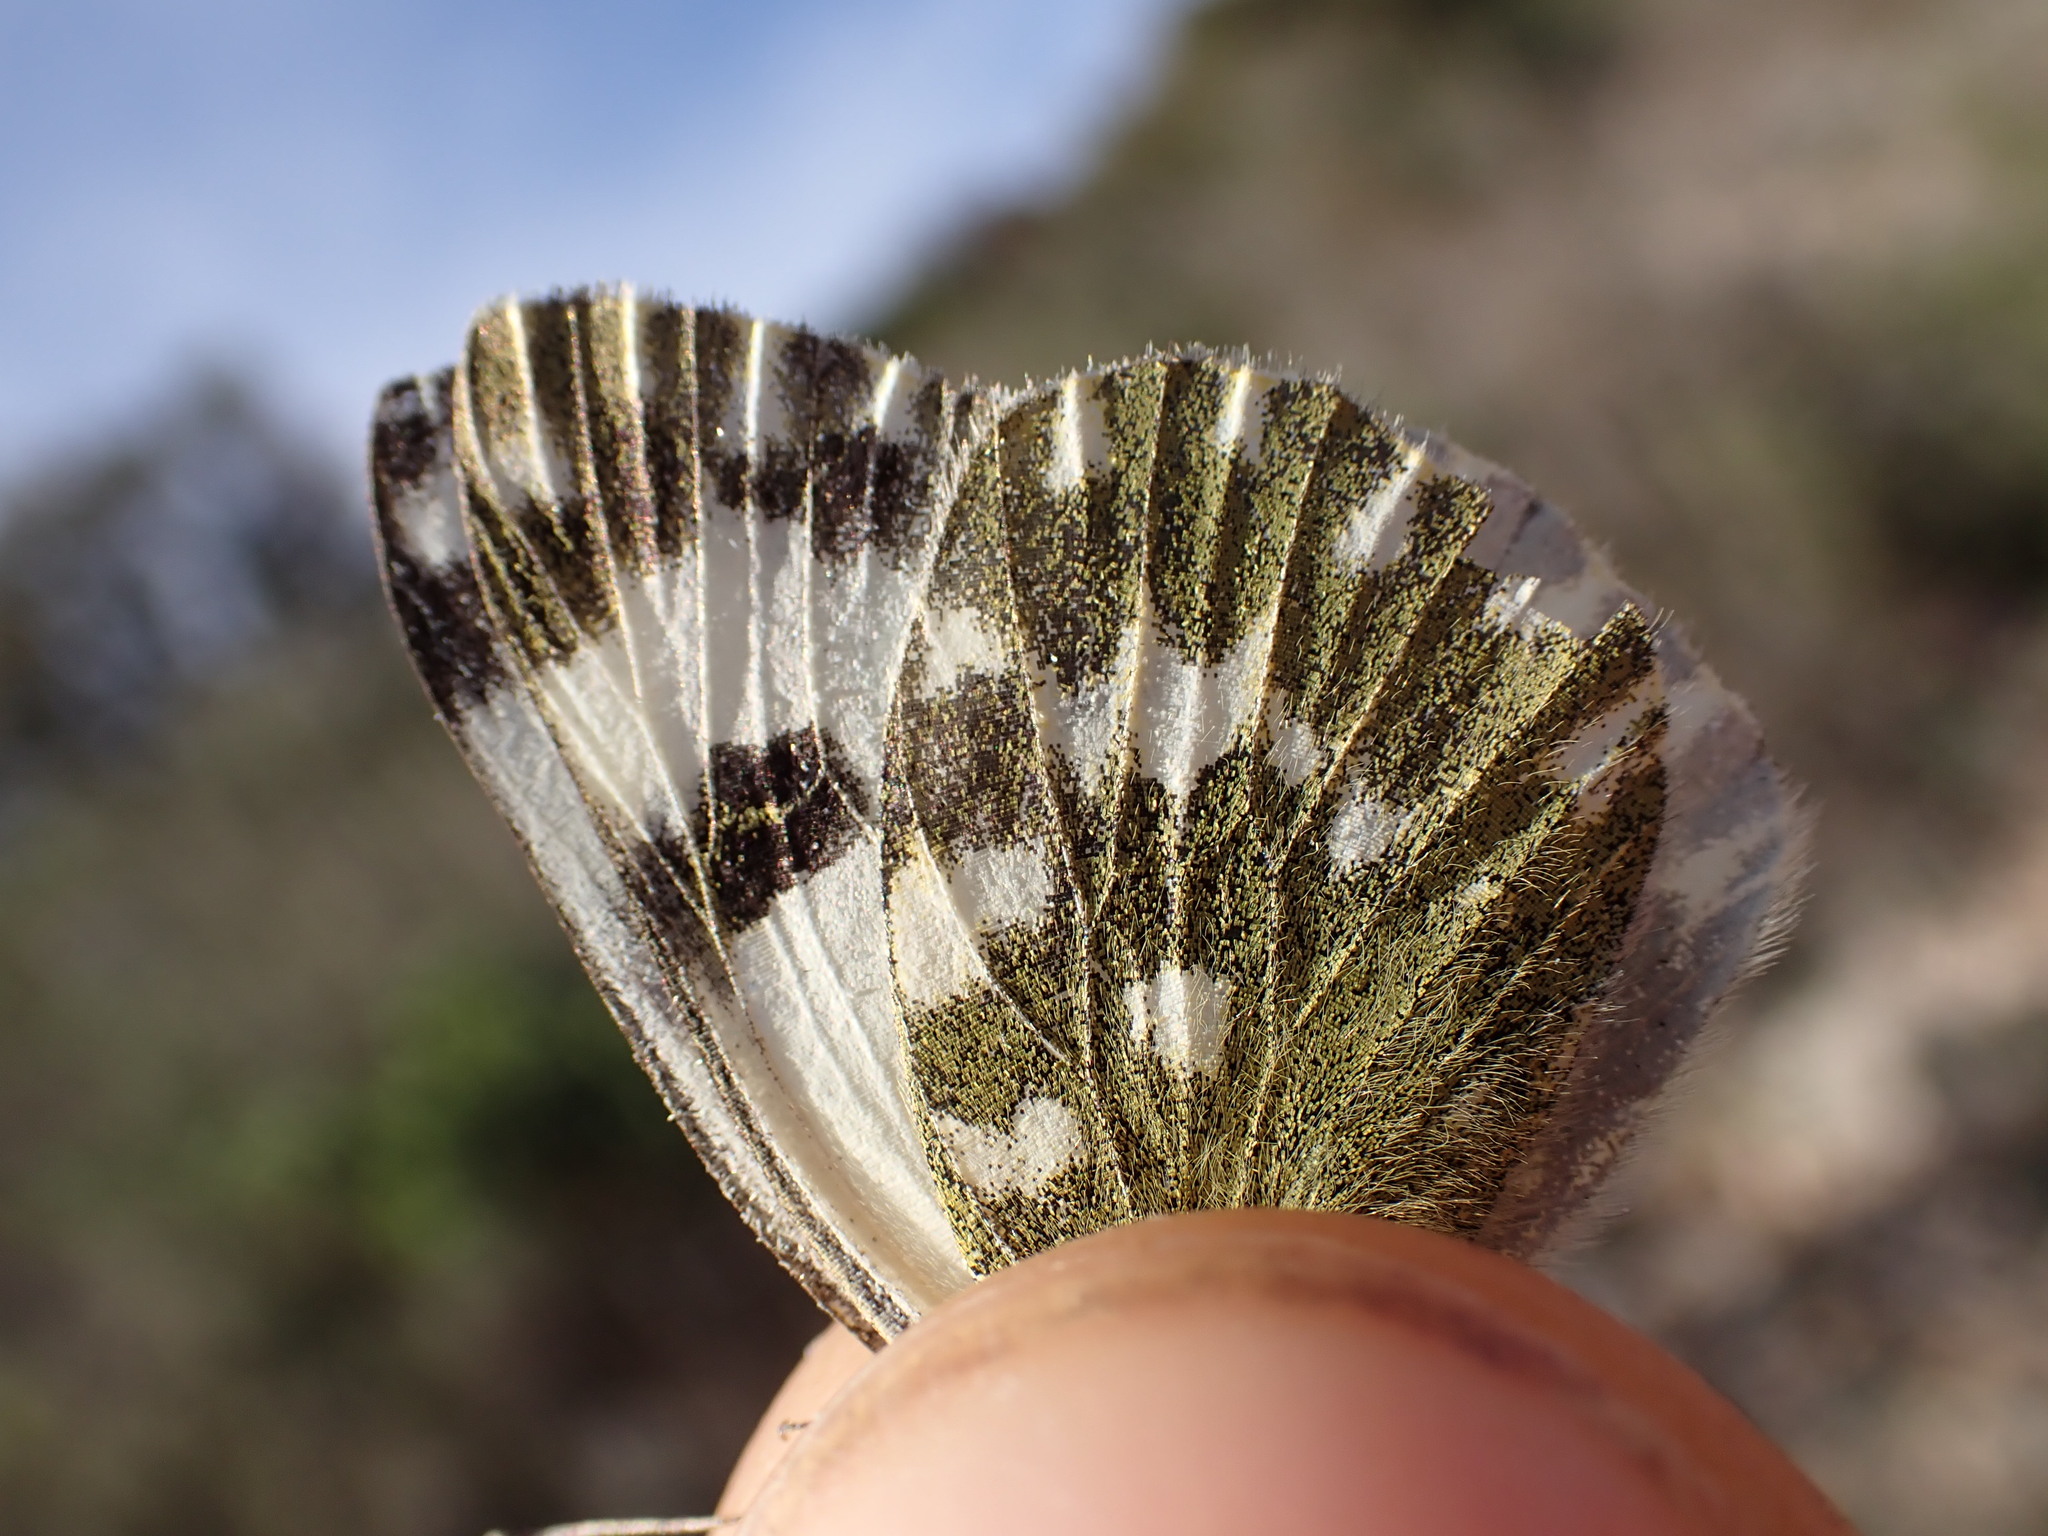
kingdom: Animalia
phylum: Arthropoda
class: Insecta
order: Lepidoptera
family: Pieridae
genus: Pontia
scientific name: Pontia daplidice
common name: Bath white
